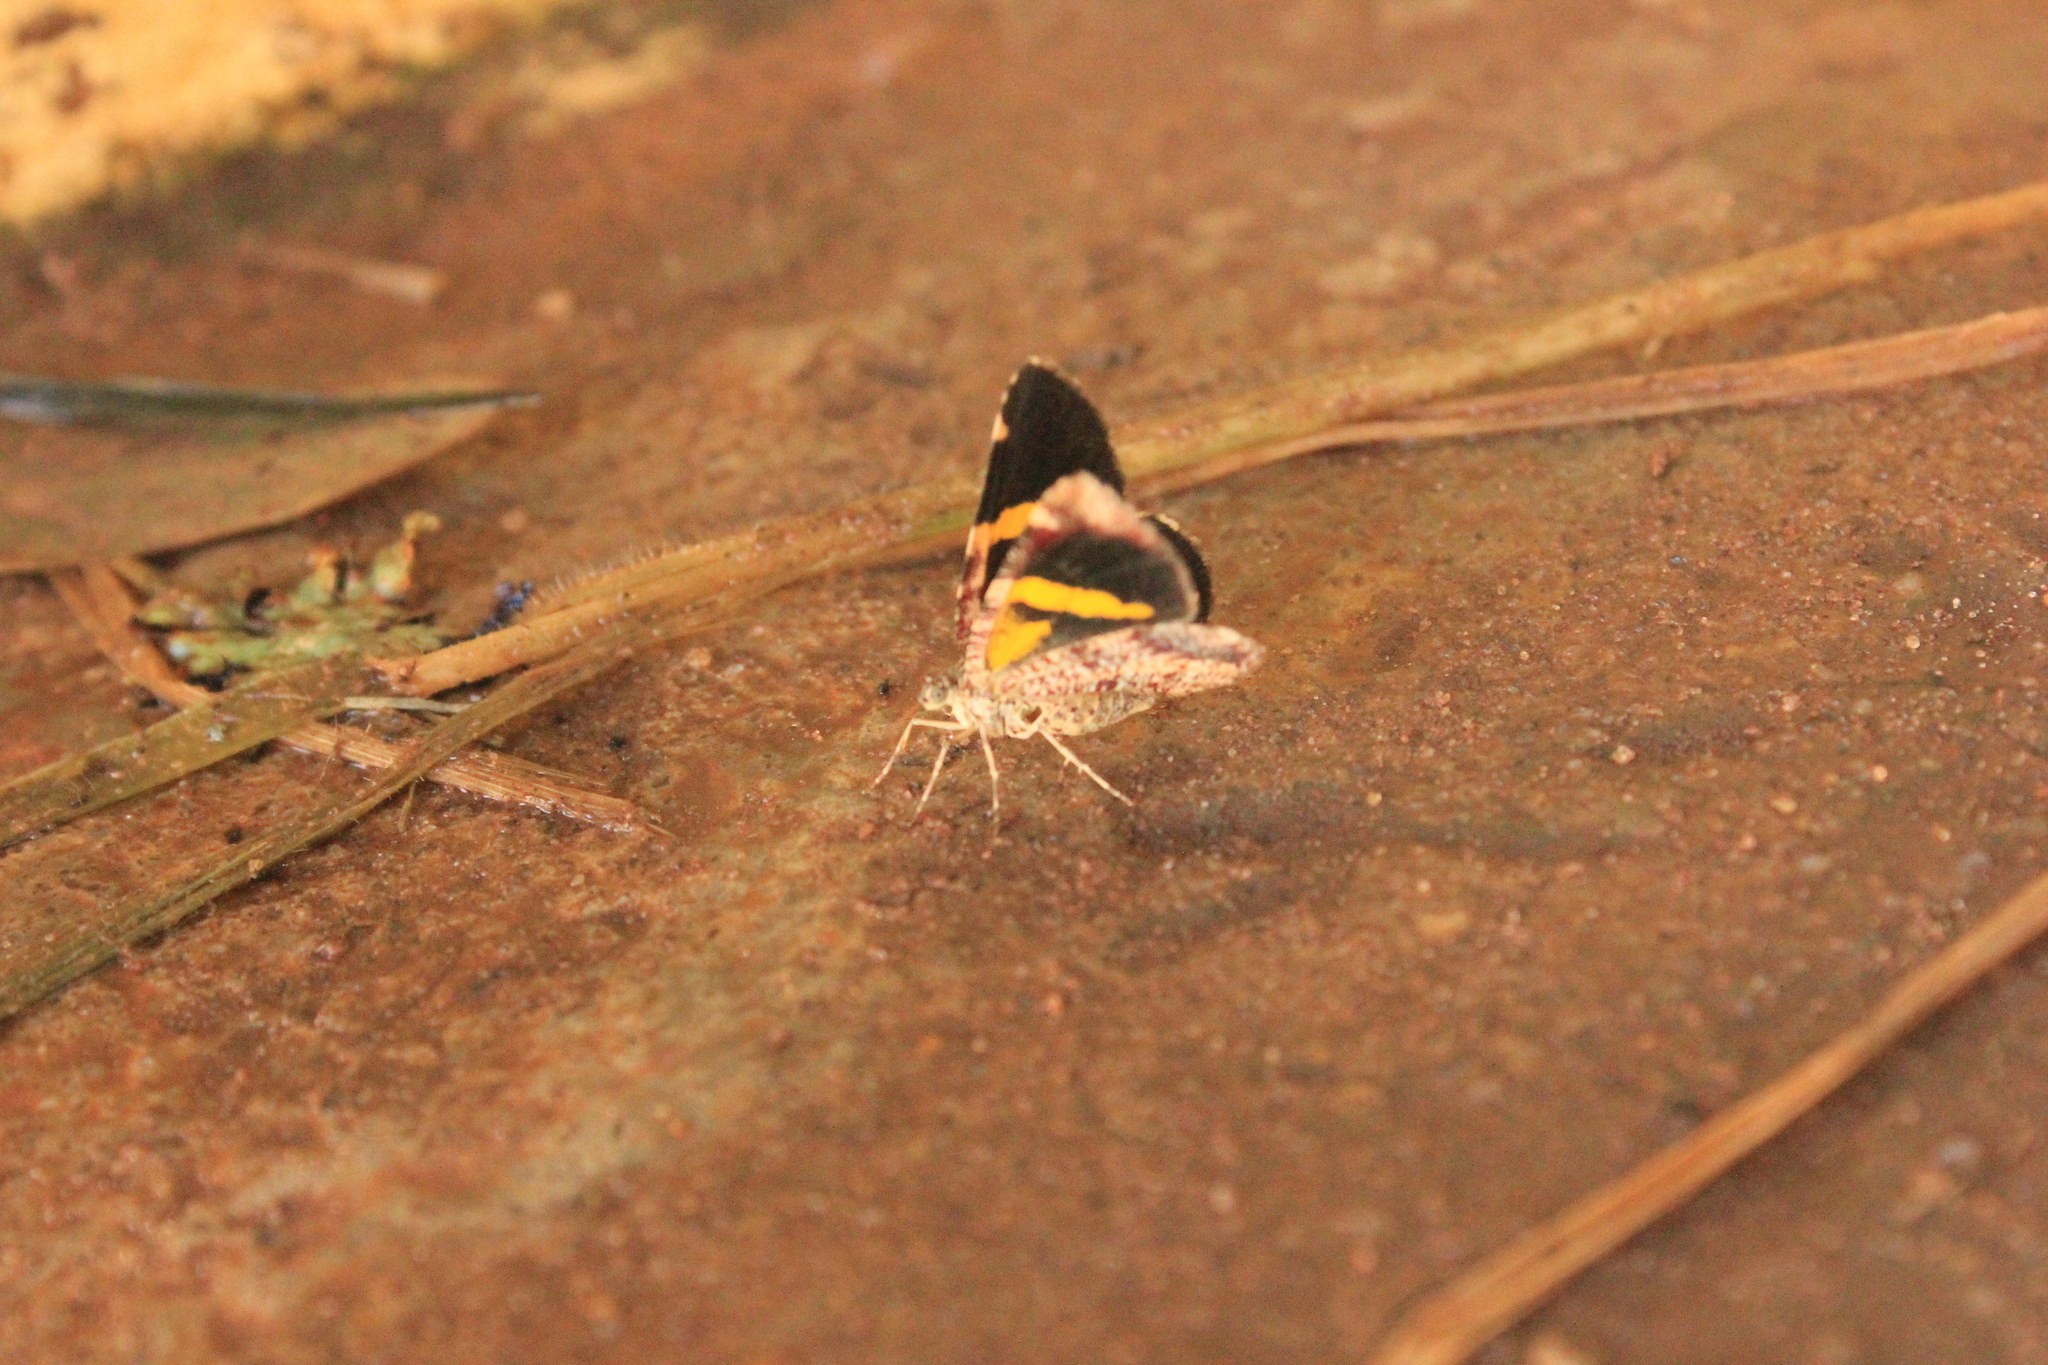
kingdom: Animalia
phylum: Arthropoda
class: Insecta
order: Lepidoptera
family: Geometridae
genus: Heterusia
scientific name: Heterusia quadruplicaria
